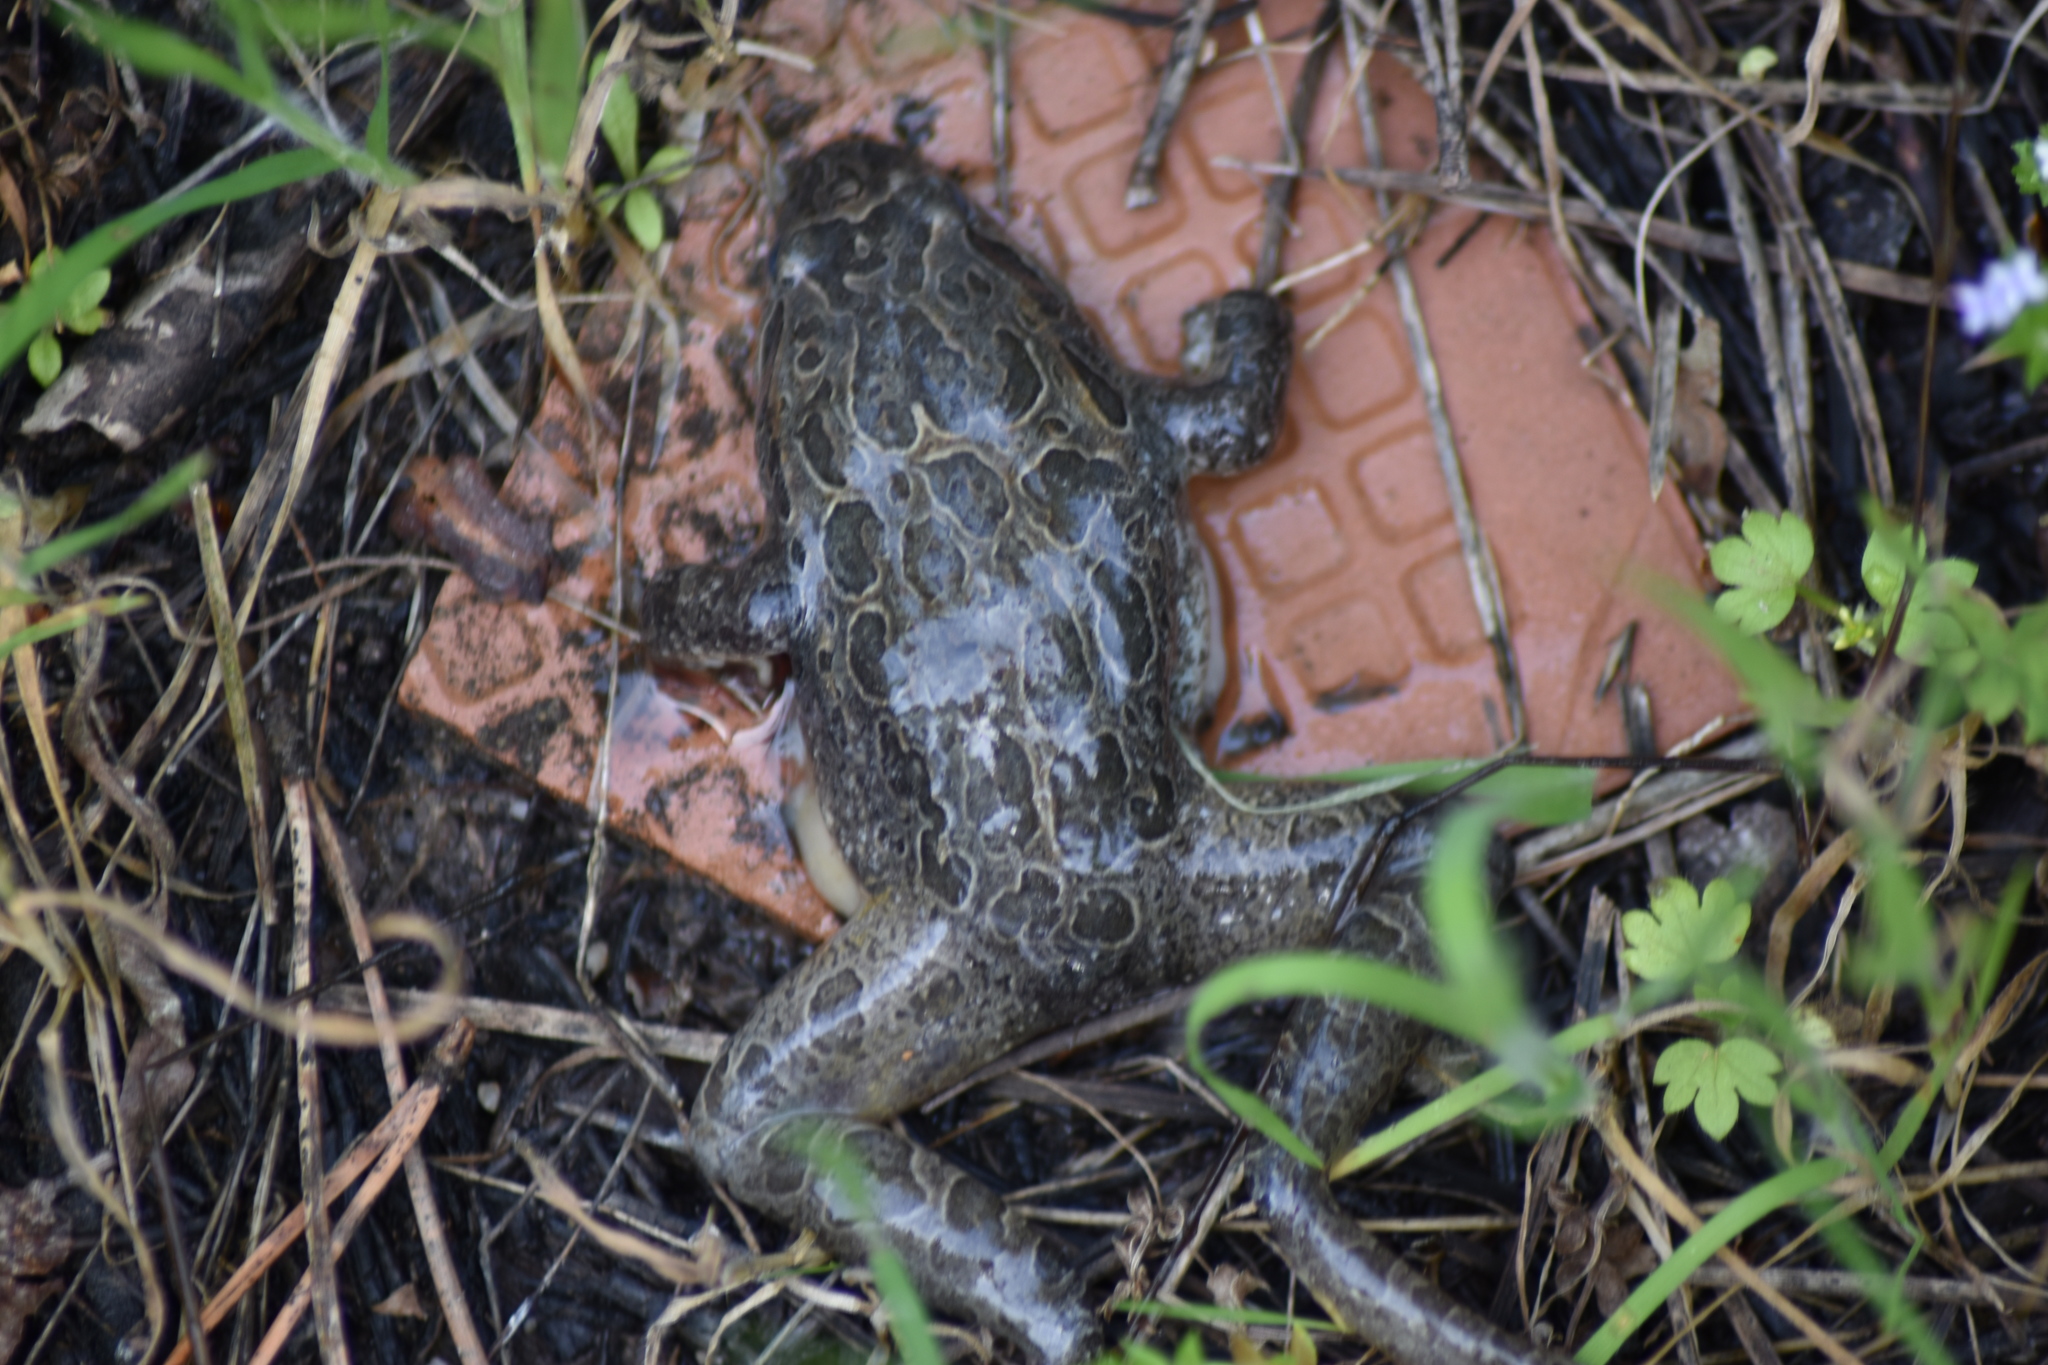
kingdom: Animalia
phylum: Chordata
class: Amphibia
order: Anura
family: Alytidae
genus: Discoglossus
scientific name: Discoglossus galganoi
